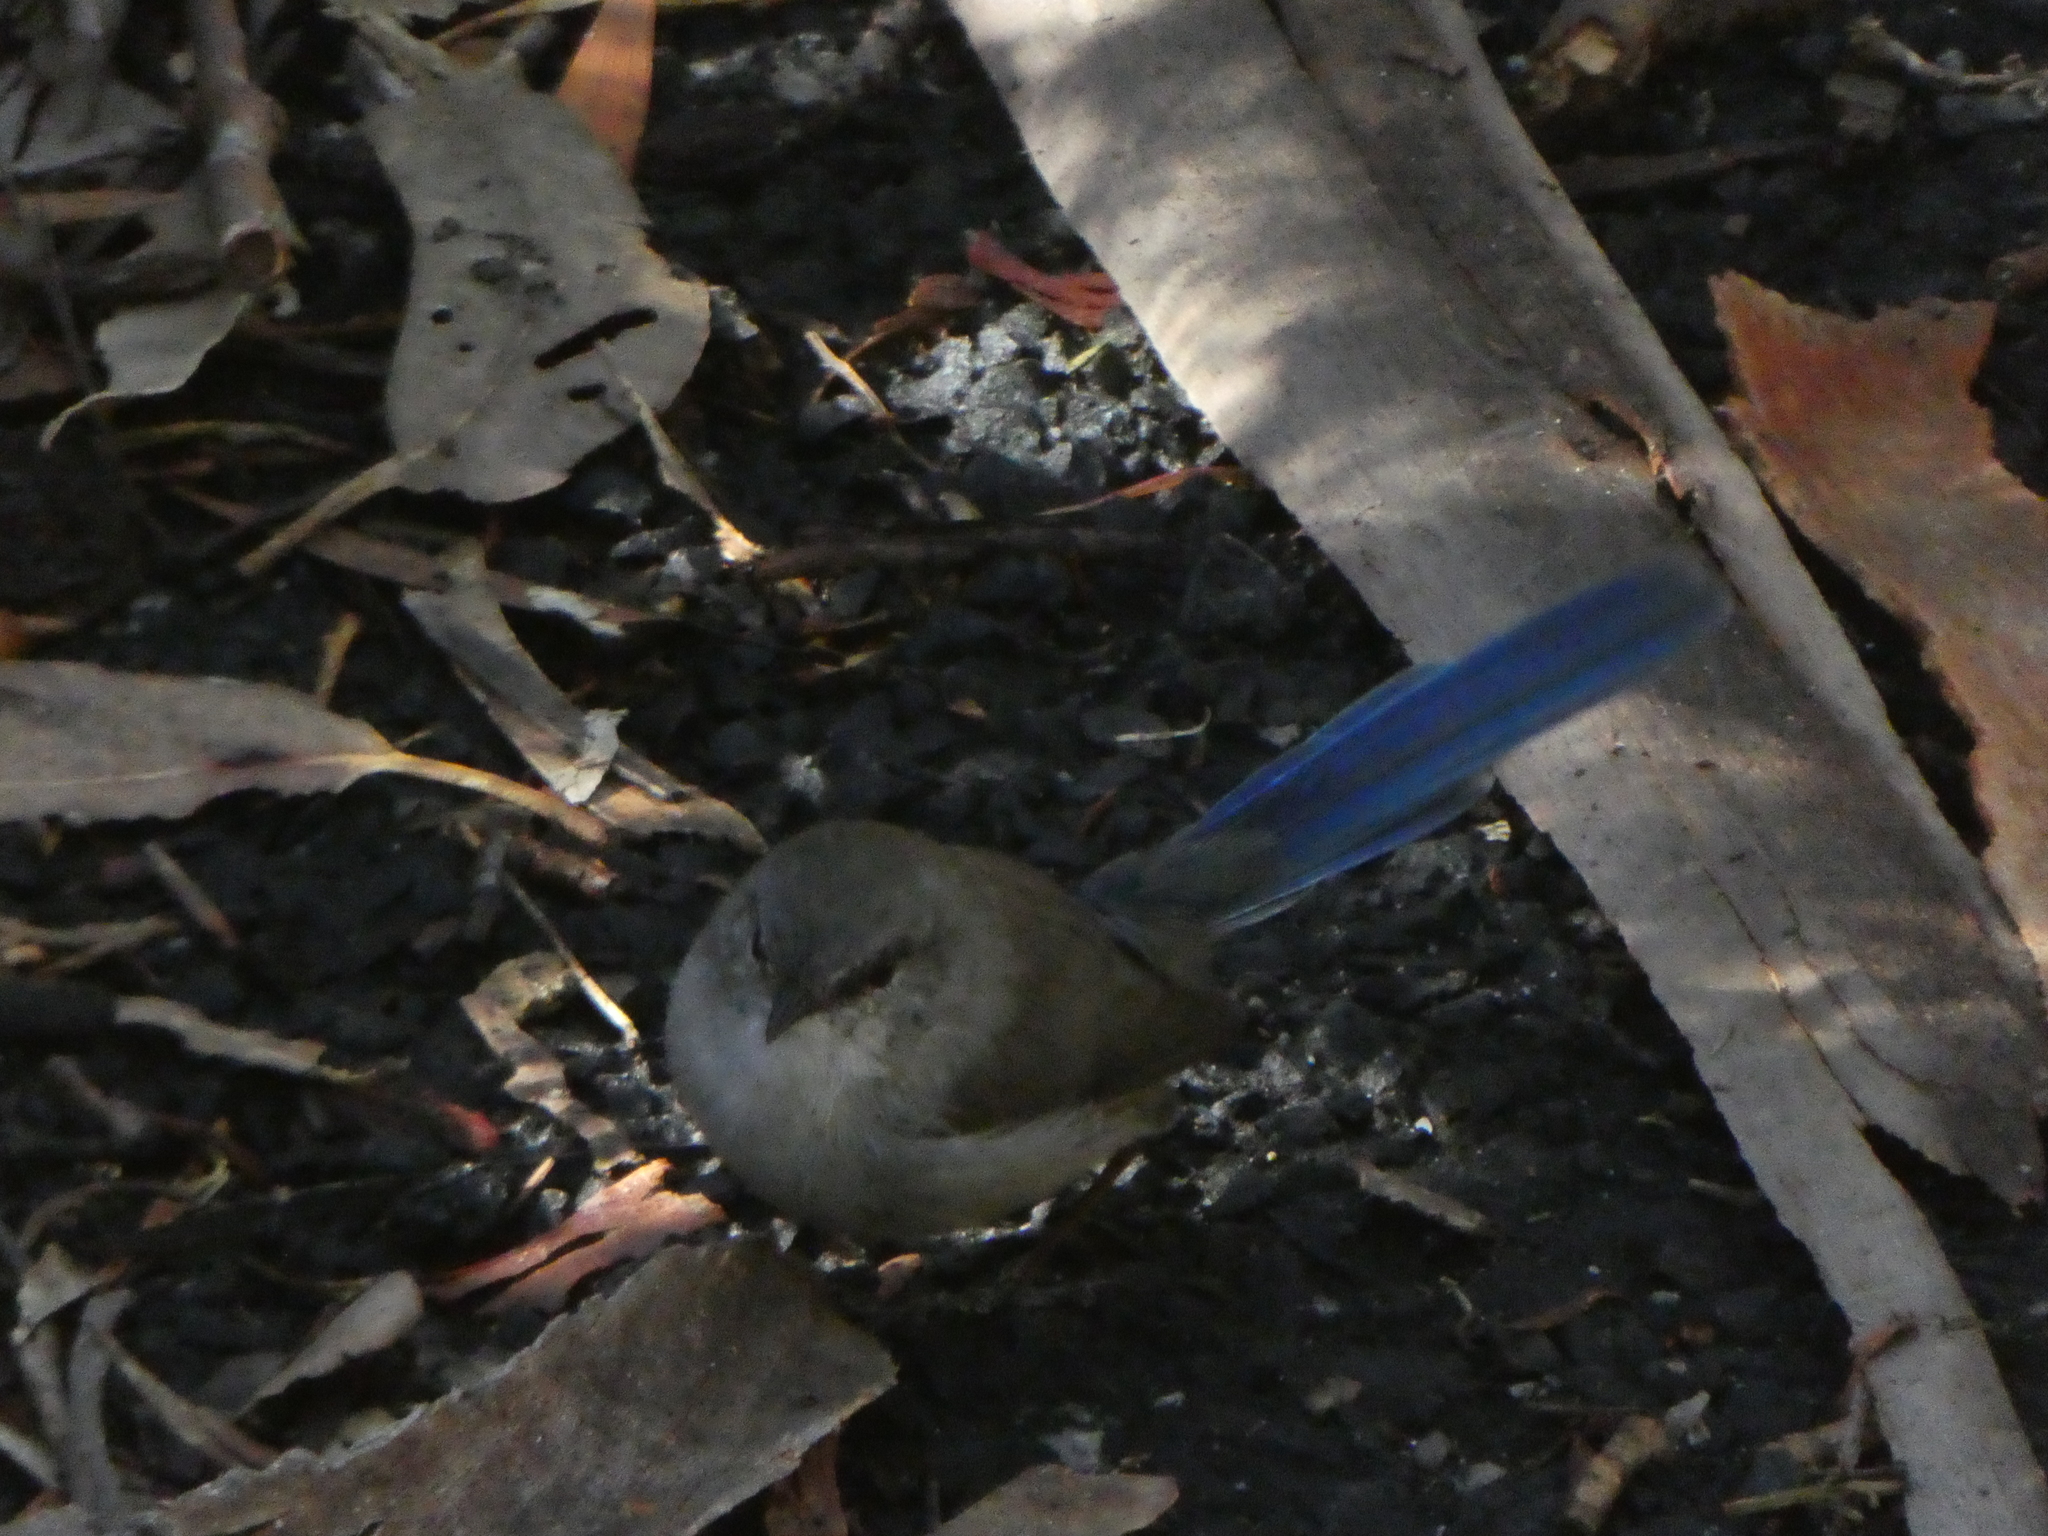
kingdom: Animalia
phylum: Chordata
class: Aves
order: Passeriformes
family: Maluridae
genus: Malurus
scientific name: Malurus cyaneus
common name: Superb fairywren
